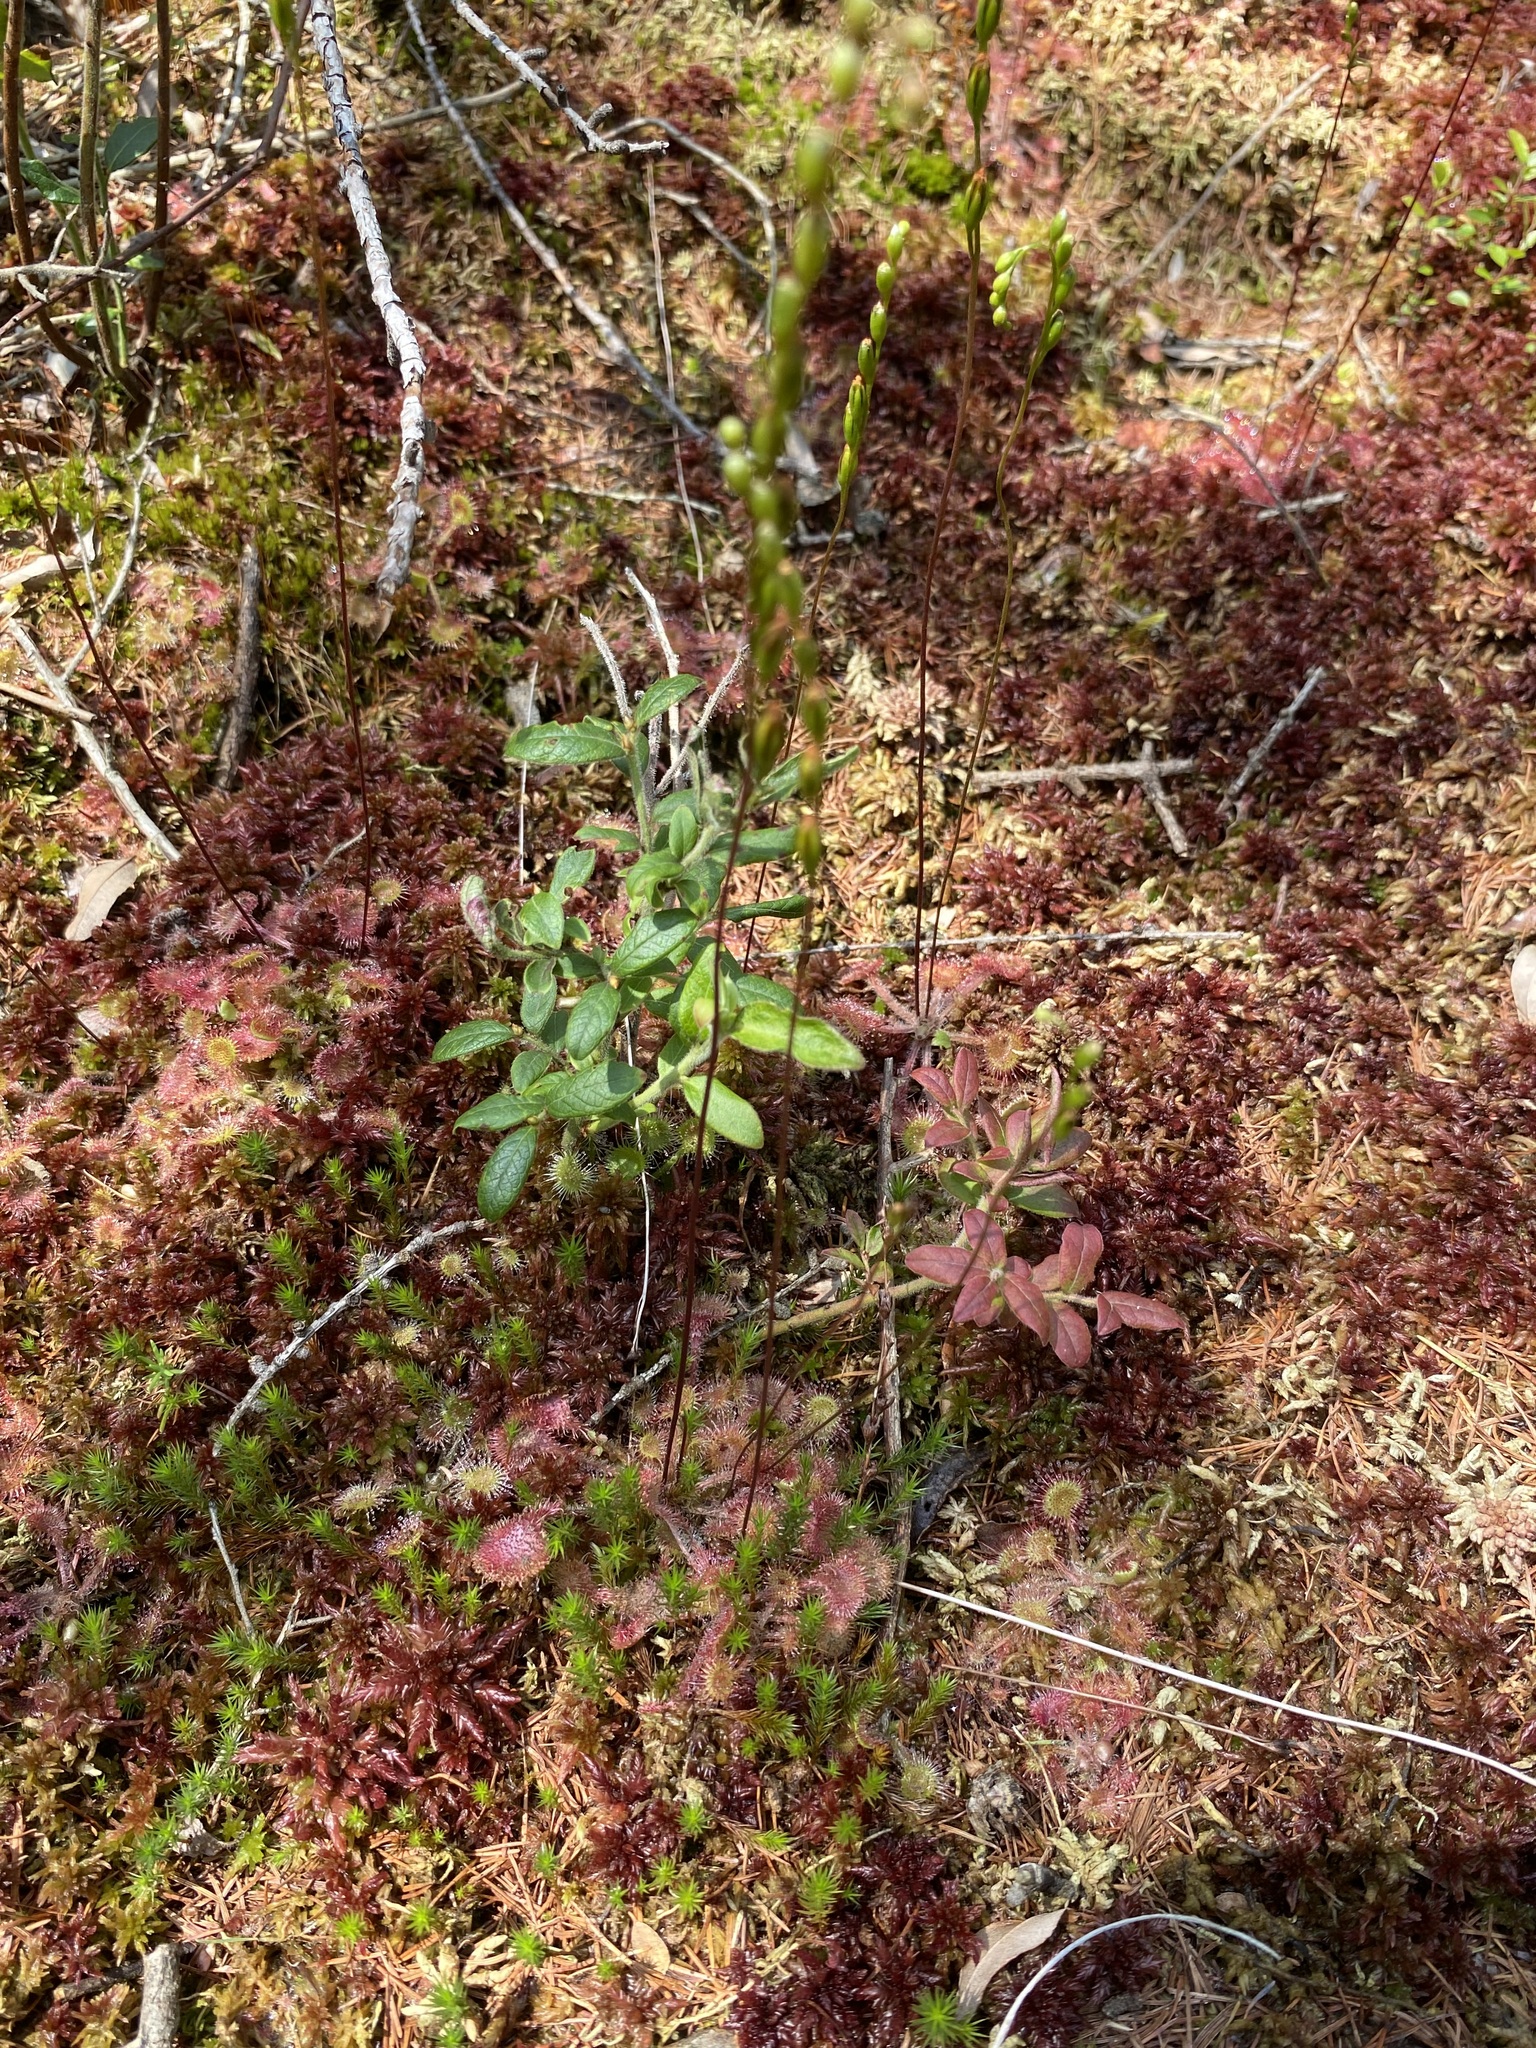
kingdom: Plantae
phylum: Tracheophyta
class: Magnoliopsida
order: Caryophyllales
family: Droseraceae
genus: Drosera
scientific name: Drosera rotundifolia
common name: Round-leaved sundew
